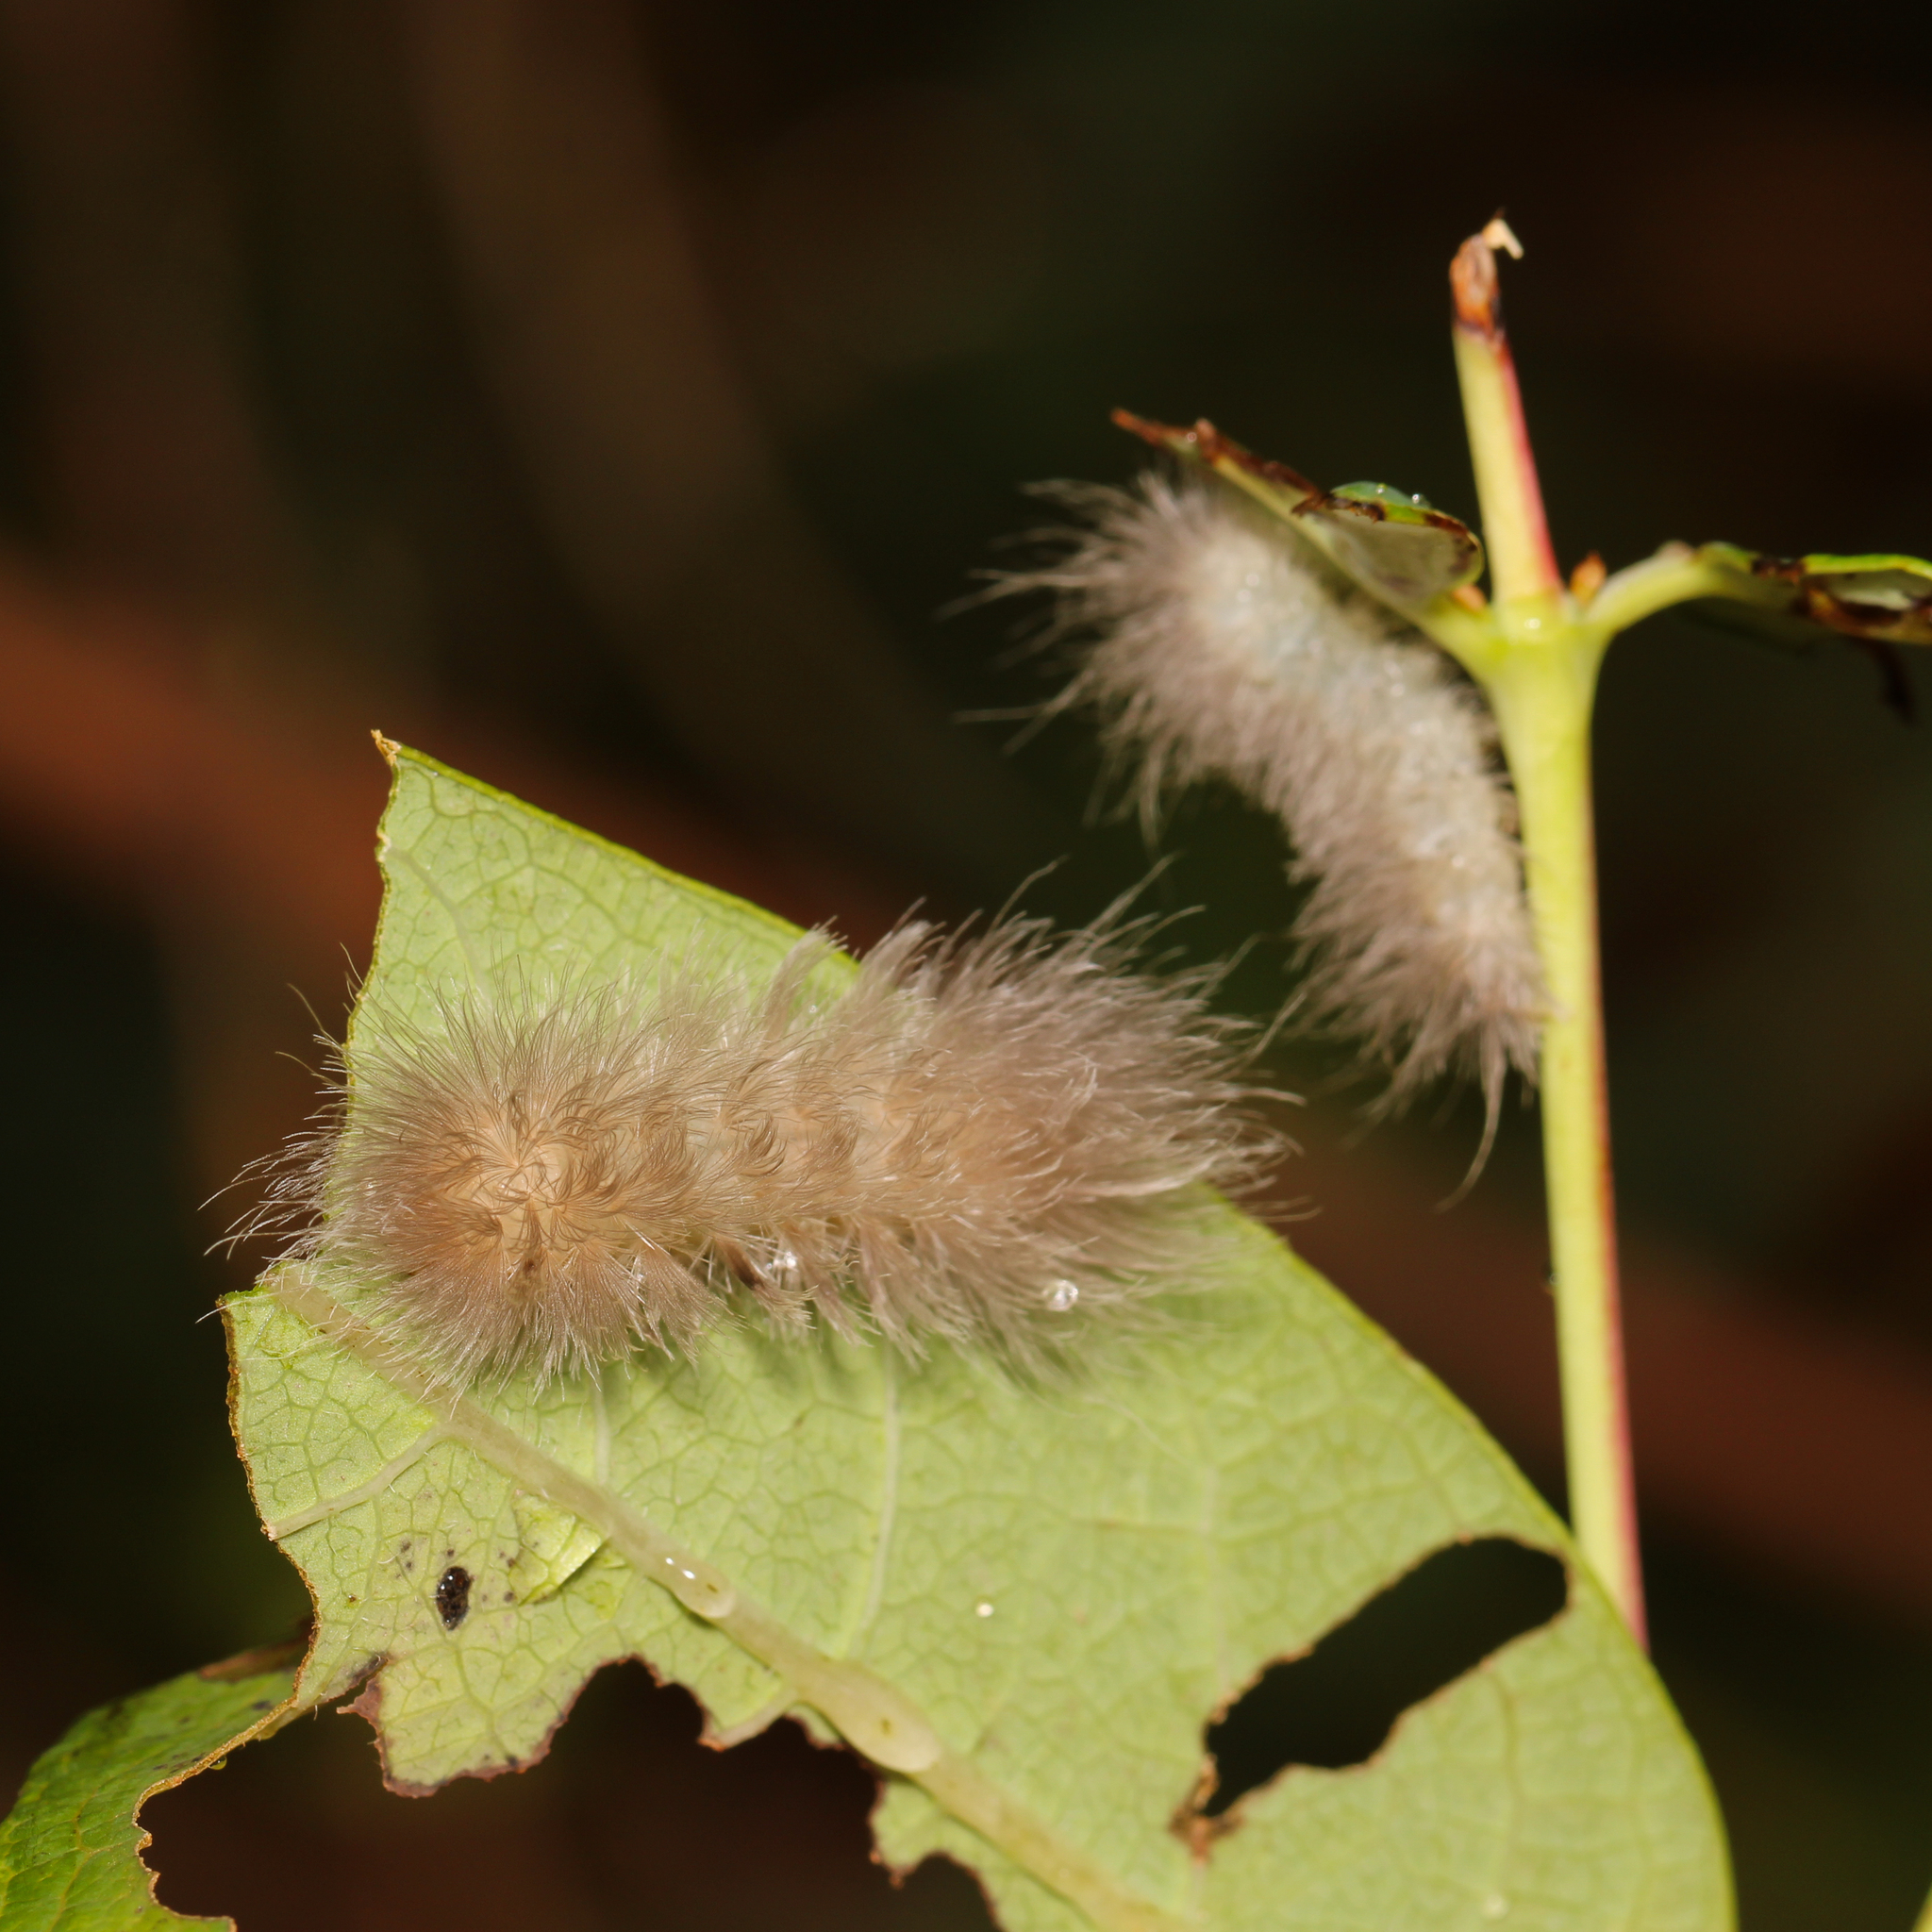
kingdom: Animalia
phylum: Arthropoda
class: Insecta
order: Lepidoptera
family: Erebidae
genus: Cycnia
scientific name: Cycnia tenera
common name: Delicate cycnia moth
